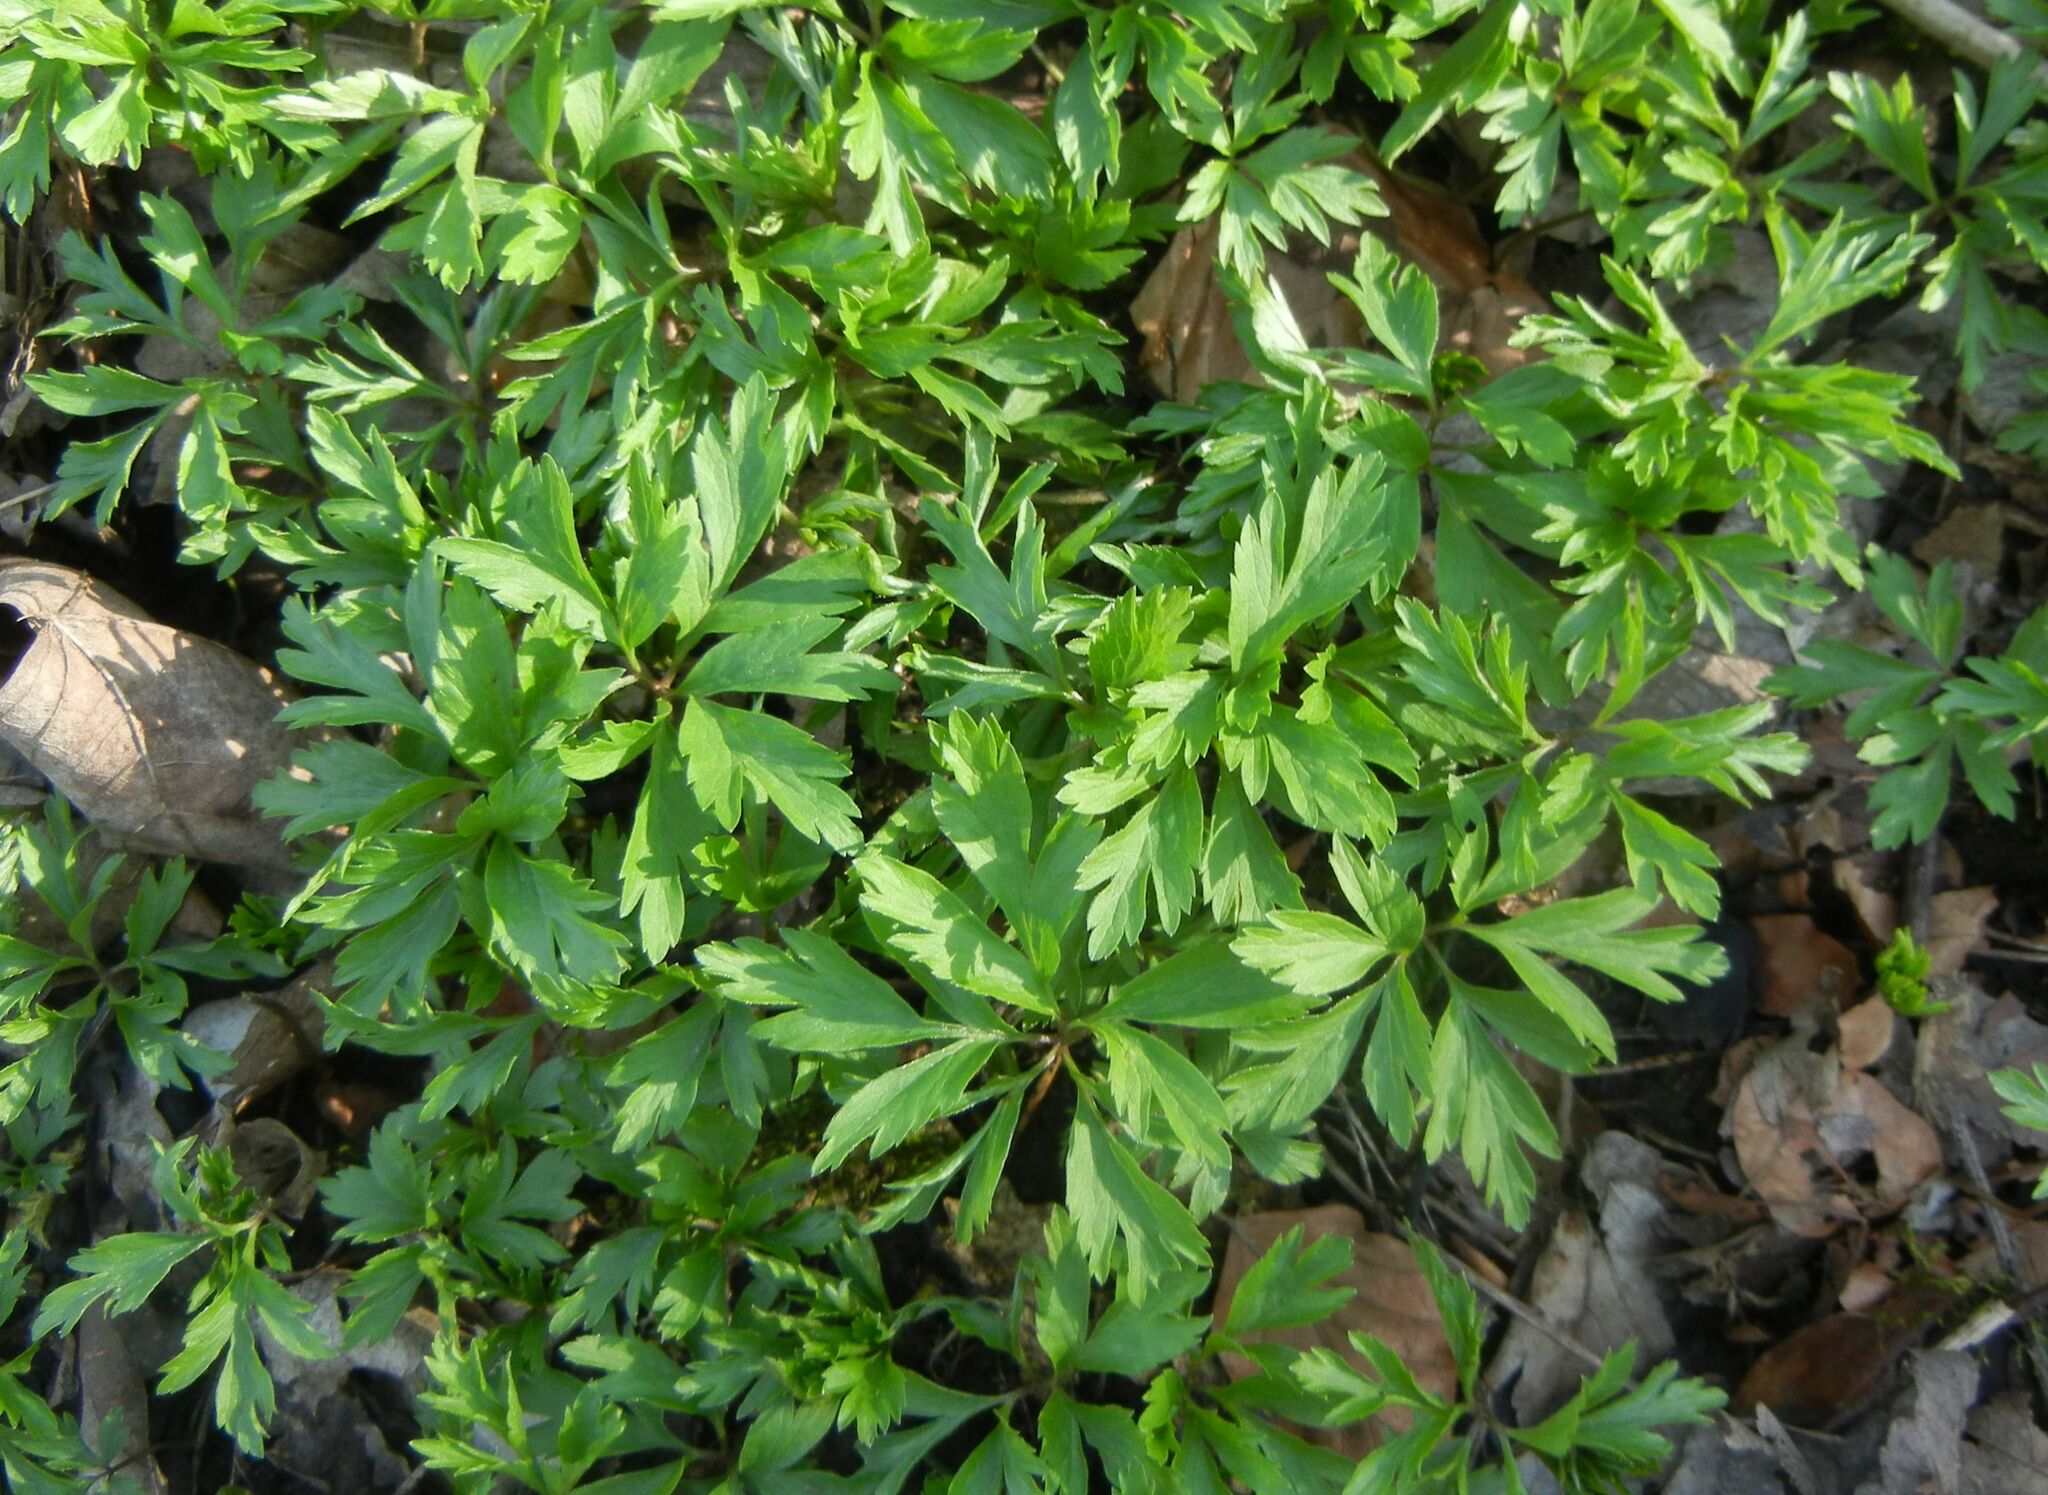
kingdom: Plantae
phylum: Tracheophyta
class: Magnoliopsida
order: Ranunculales
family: Ranunculaceae
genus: Anemone
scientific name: Anemone nemorosa
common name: Wood anemone
